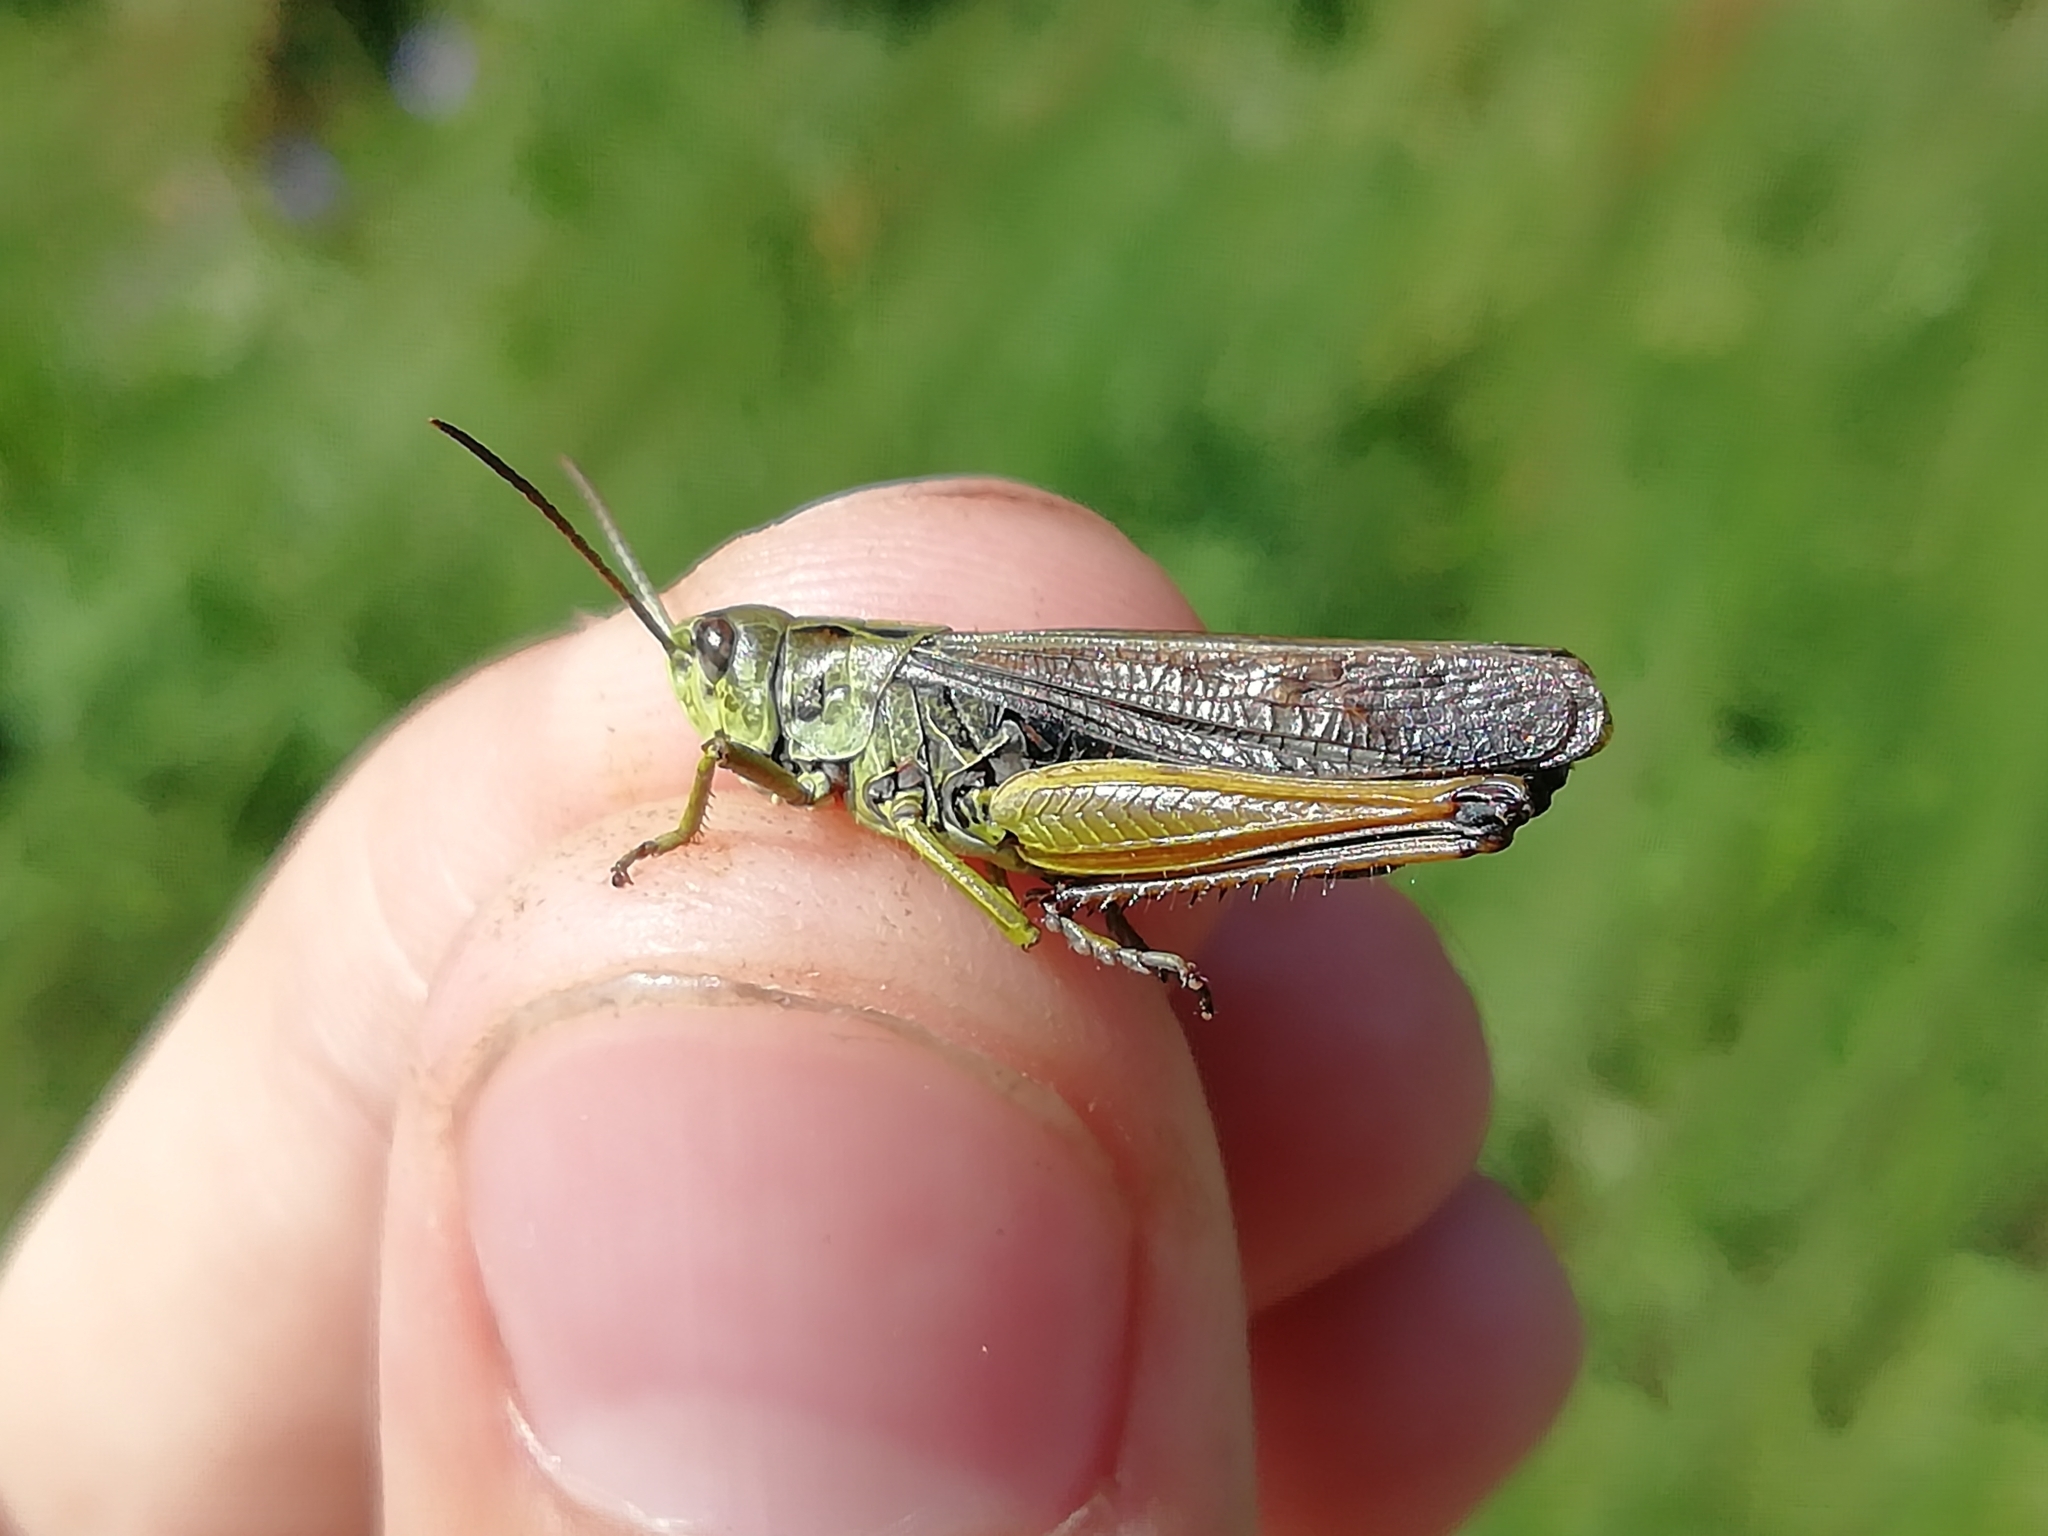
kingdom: Animalia
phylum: Arthropoda
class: Insecta
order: Orthoptera
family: Acrididae
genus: Omocestus
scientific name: Omocestus viridulus
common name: Common green grasshopper
